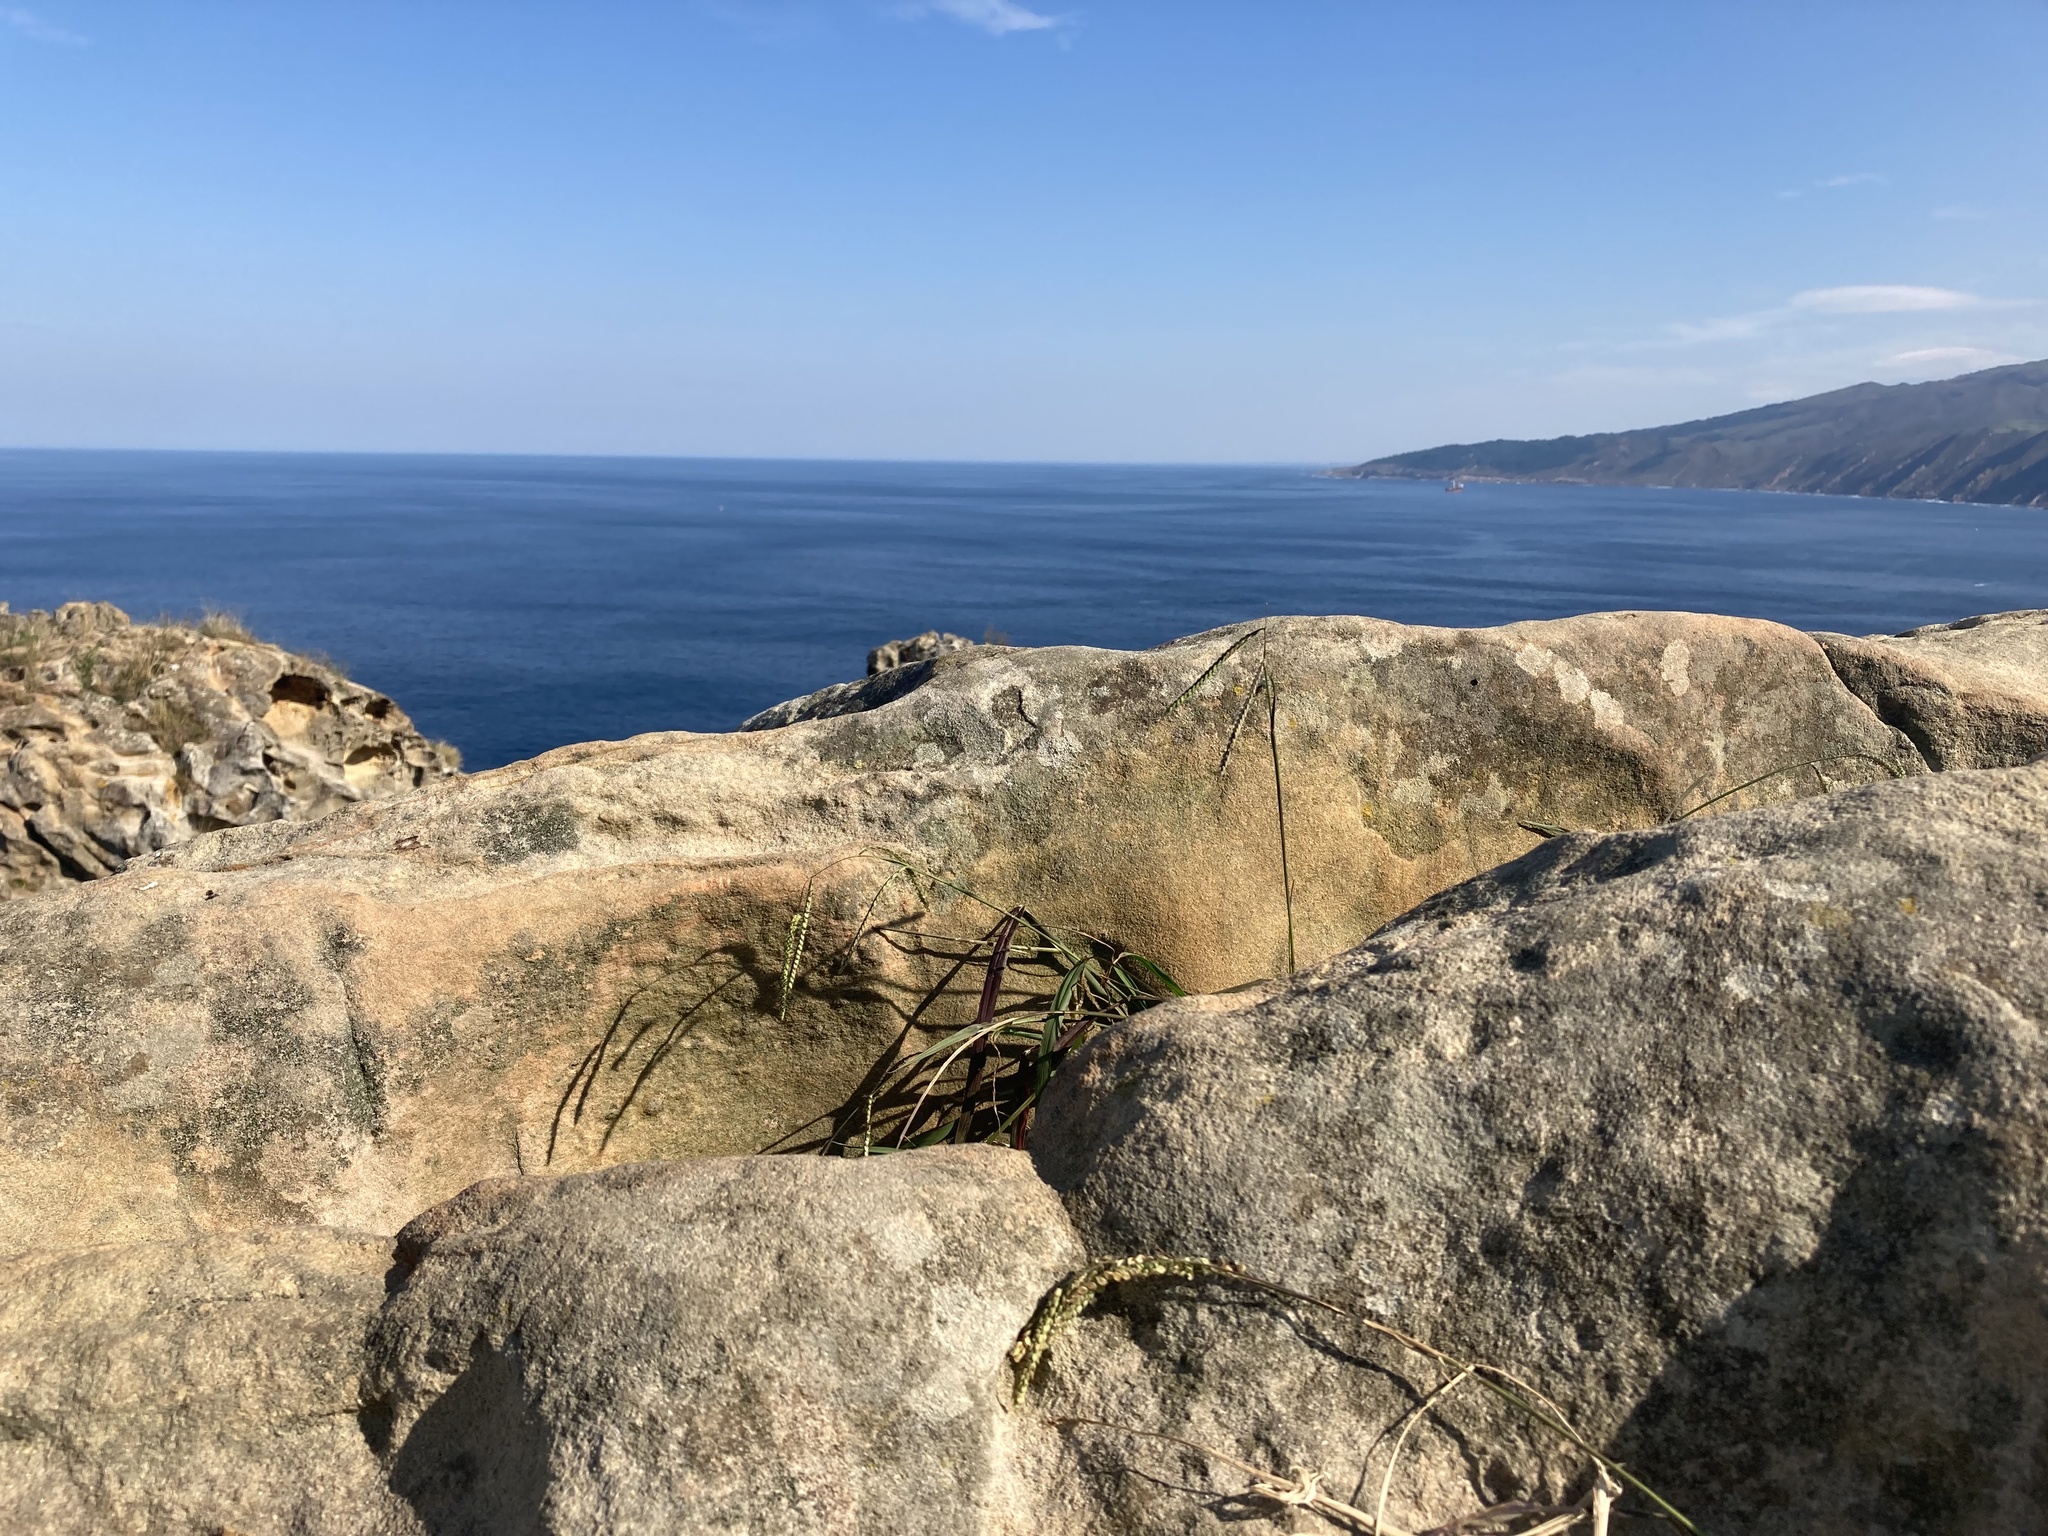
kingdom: Plantae
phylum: Tracheophyta
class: Liliopsida
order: Poales
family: Poaceae
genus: Paspalum
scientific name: Paspalum dilatatum
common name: Dallisgrass
